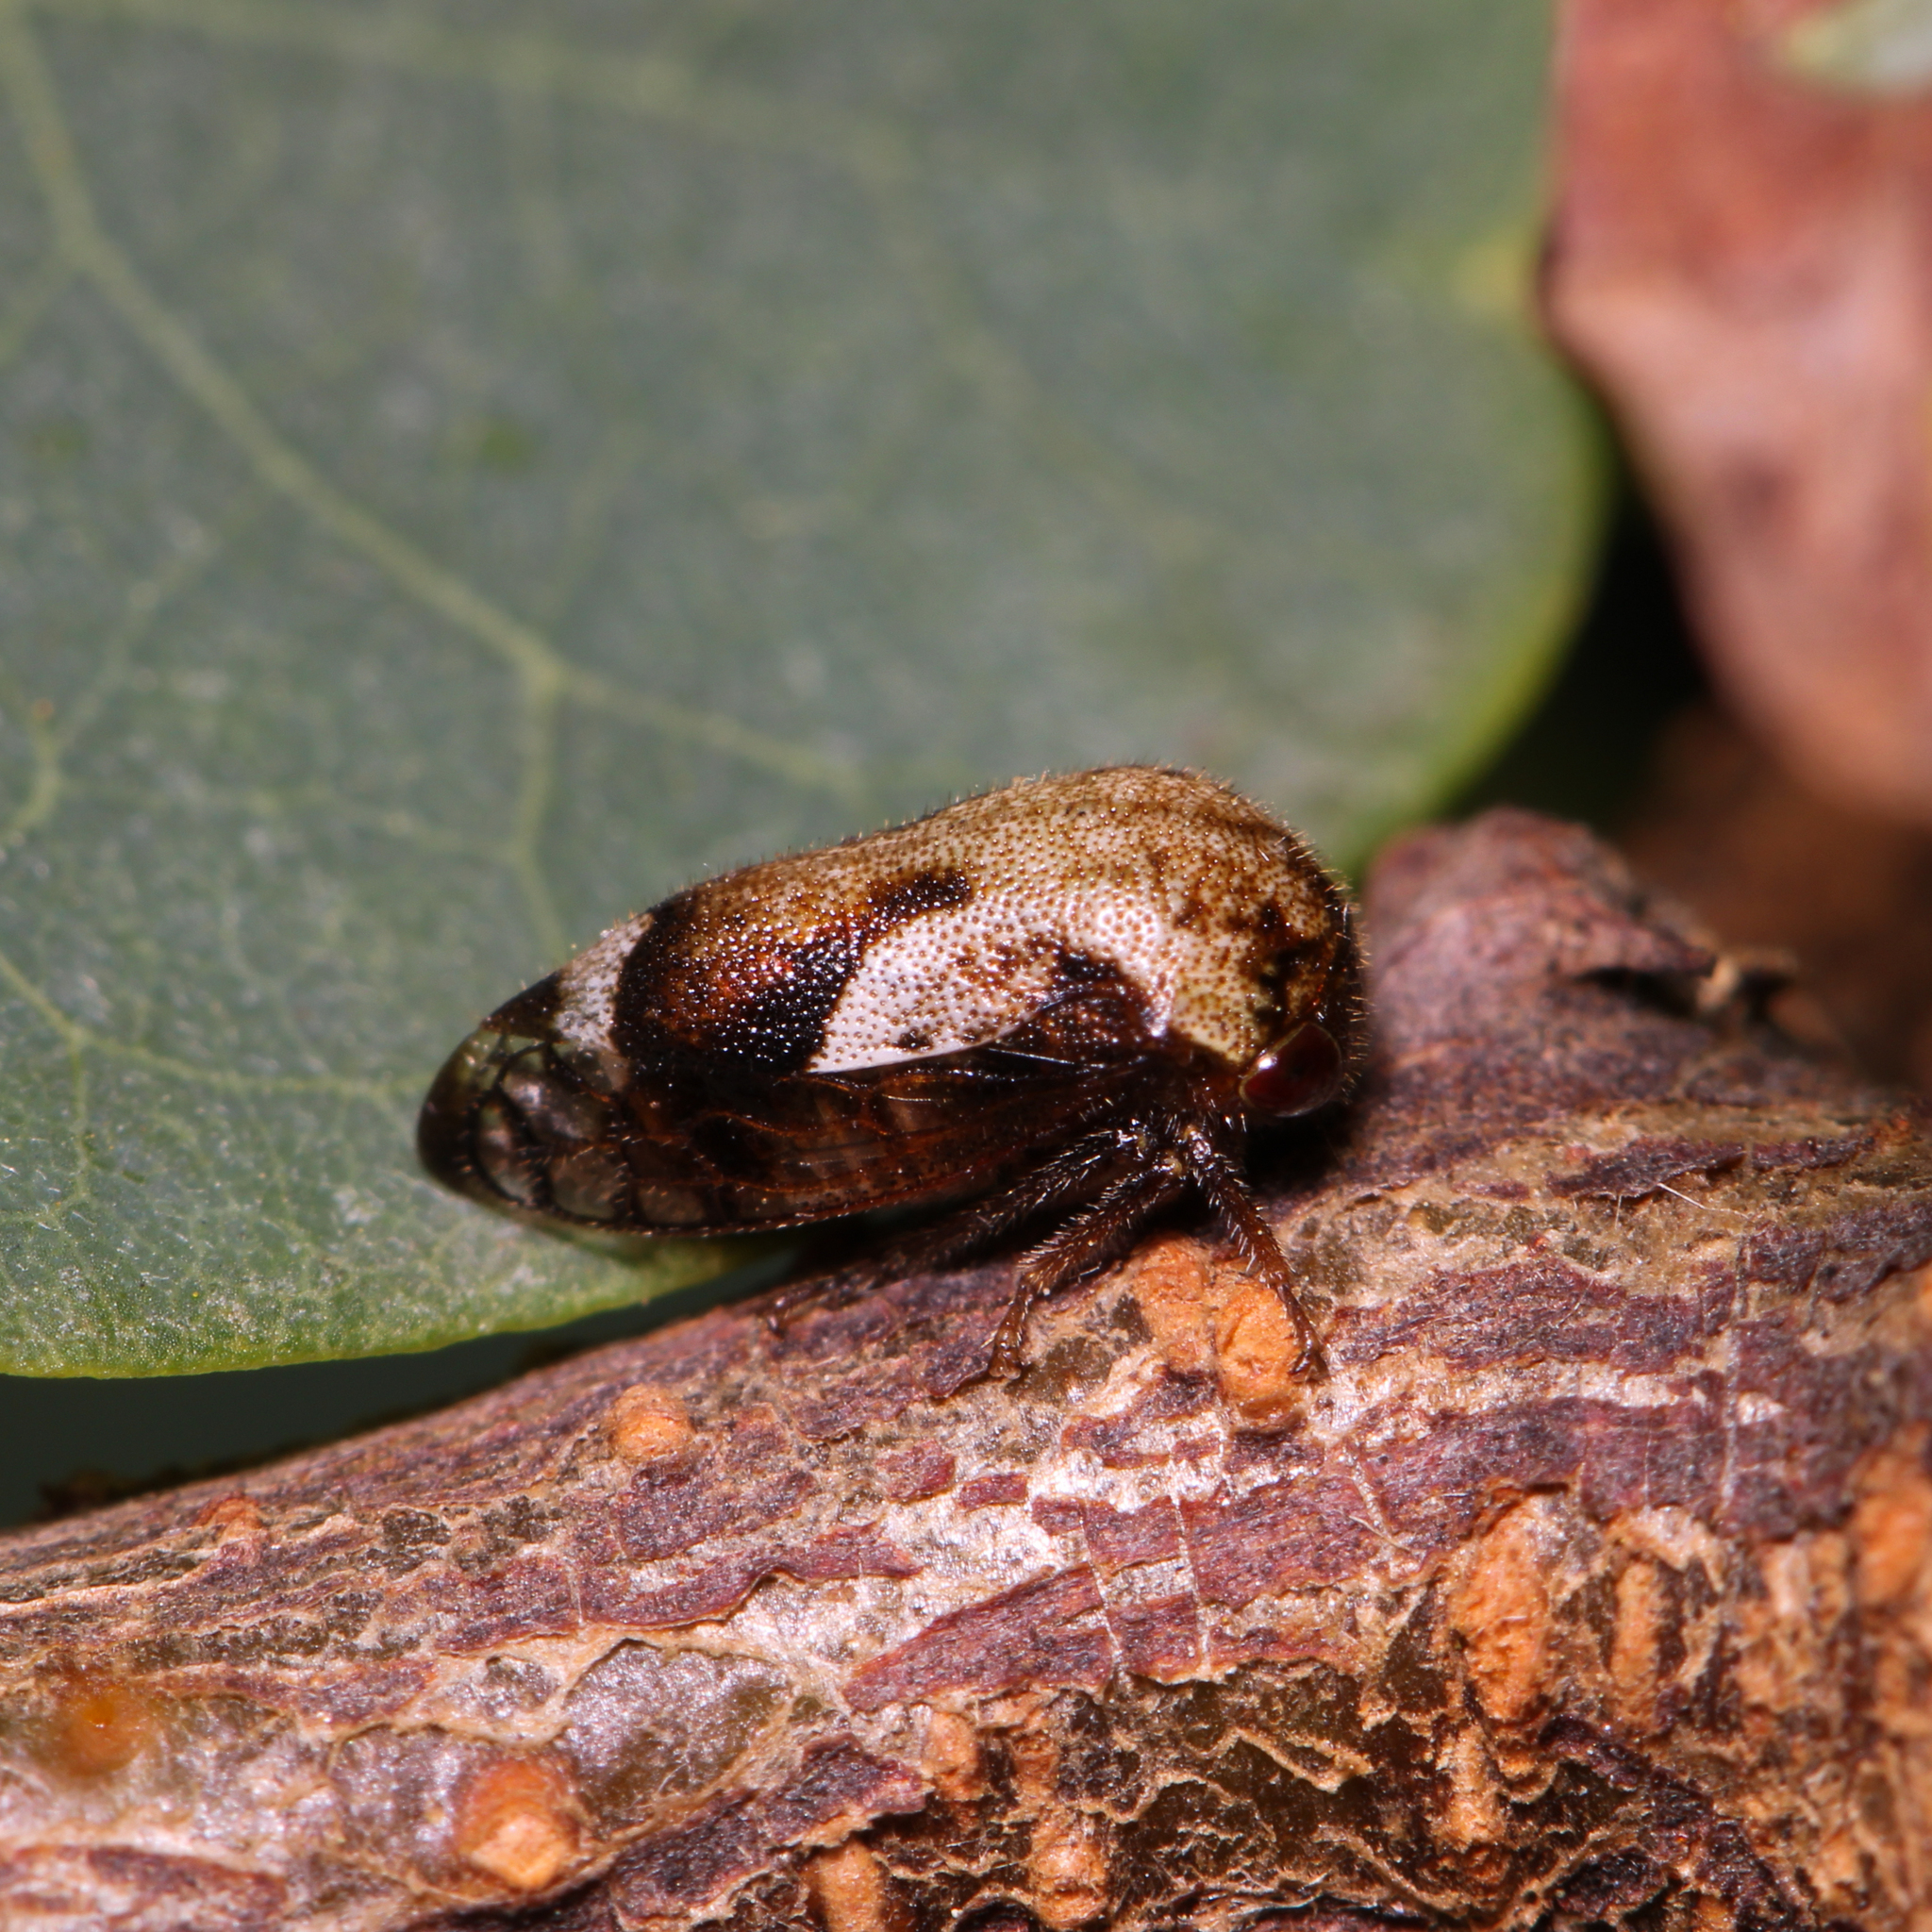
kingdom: Animalia
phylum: Arthropoda
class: Insecta
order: Hemiptera
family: Membracidae
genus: Vanduzea
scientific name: Vanduzea arquata
